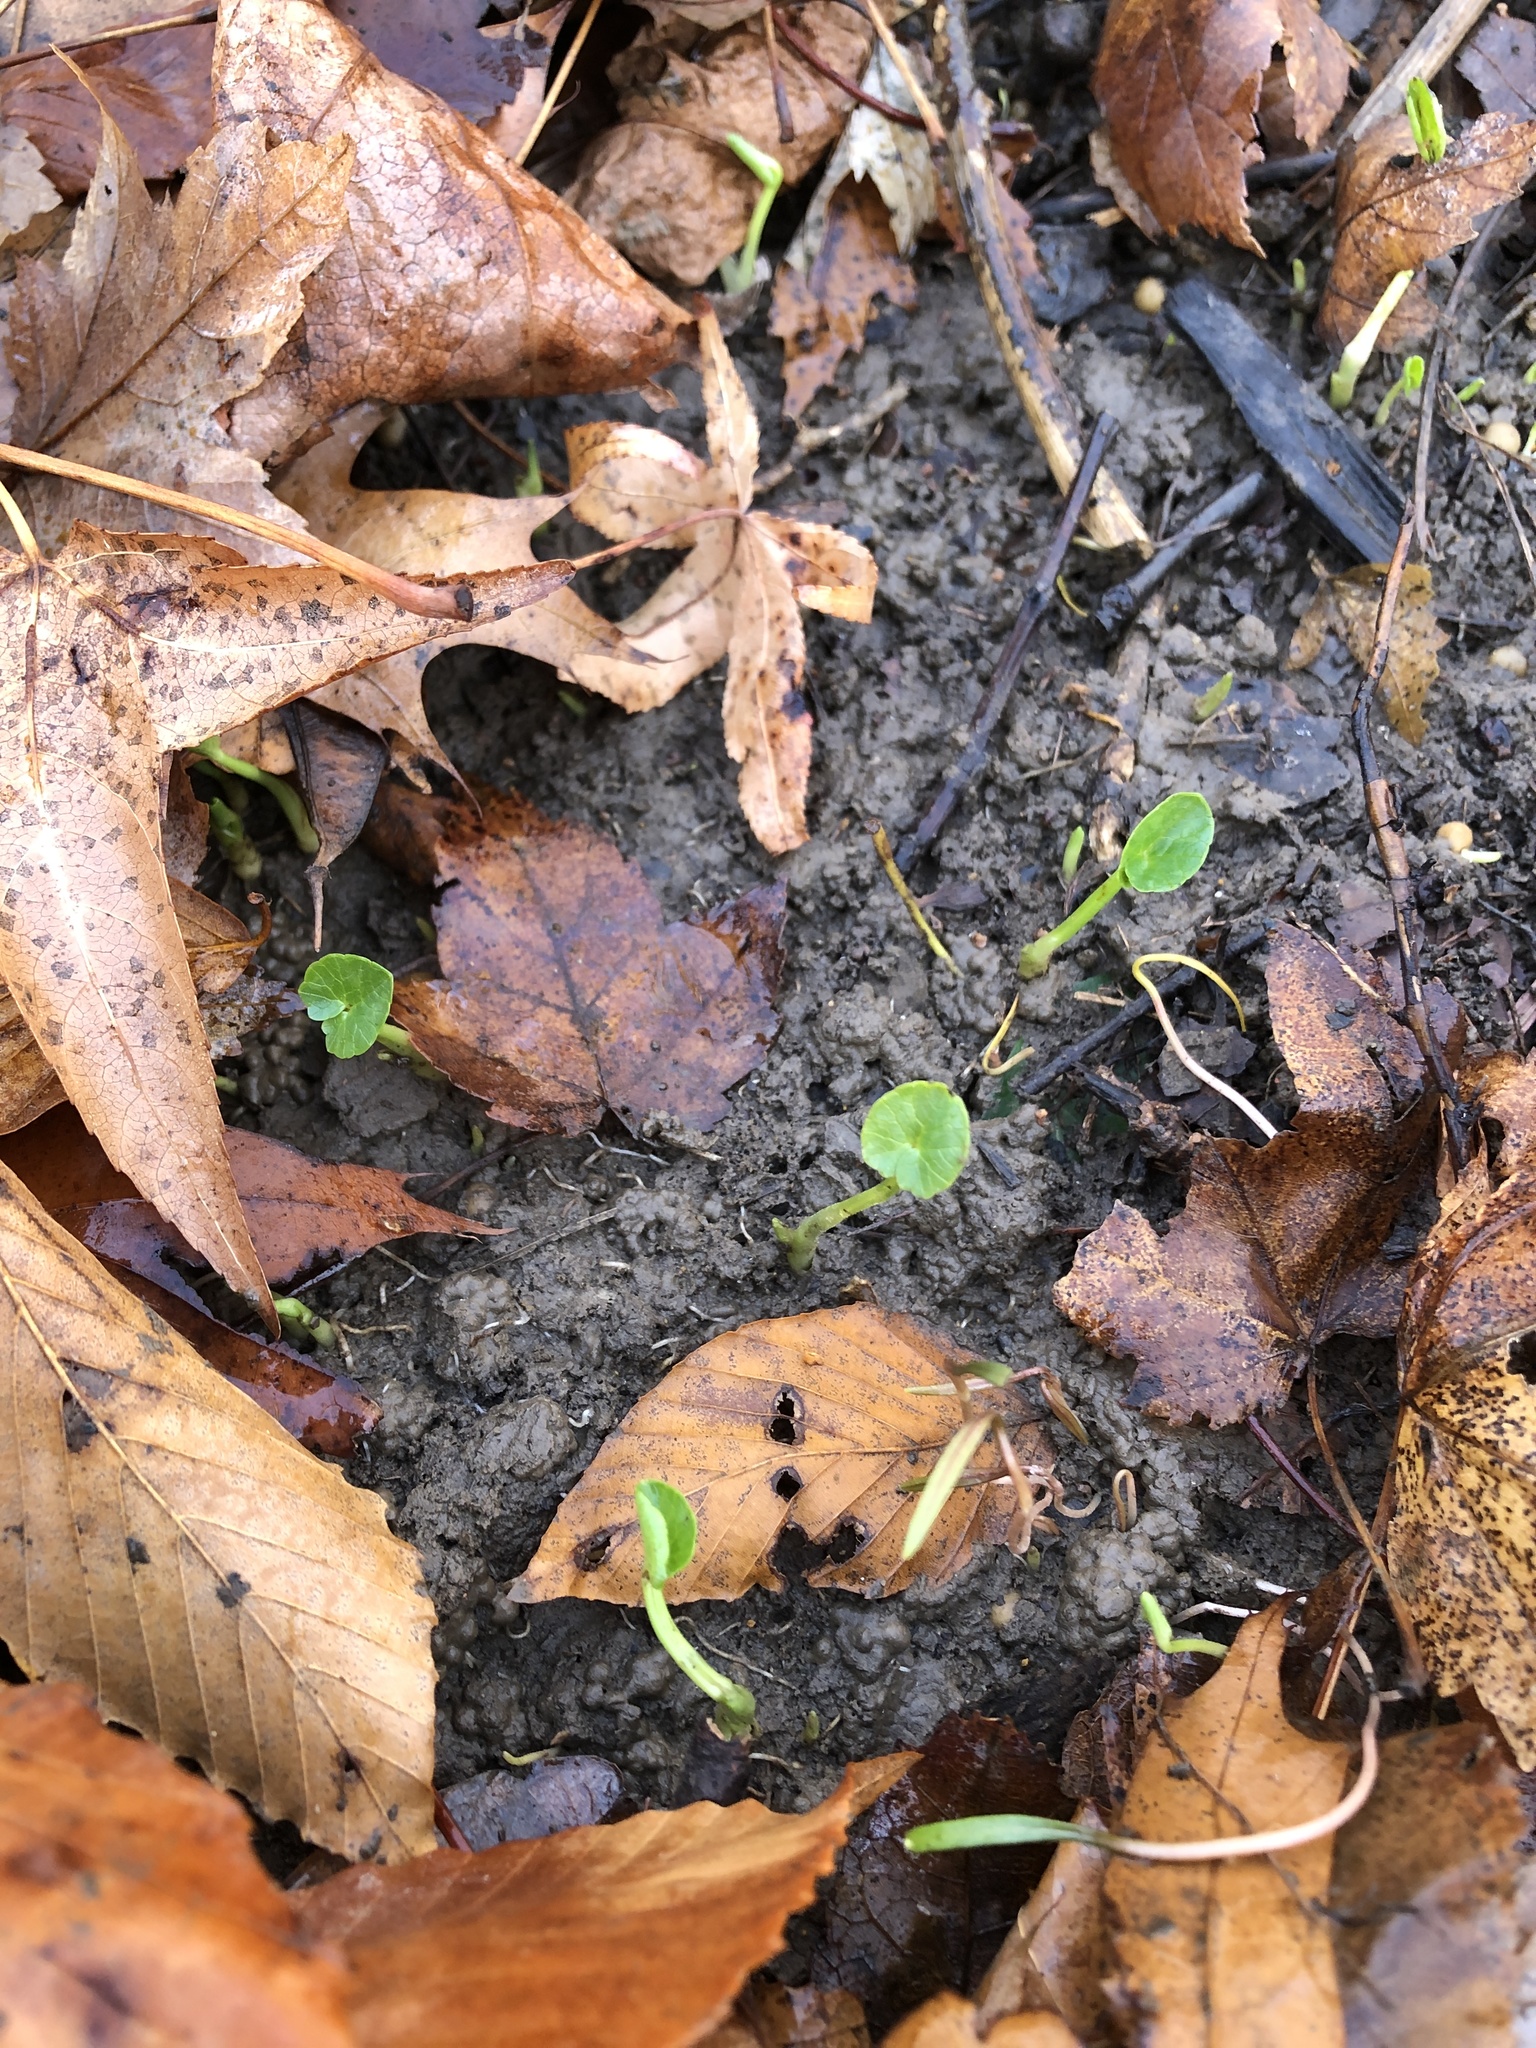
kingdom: Plantae
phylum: Tracheophyta
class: Magnoliopsida
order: Ranunculales
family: Ranunculaceae
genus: Ficaria
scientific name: Ficaria verna
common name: Lesser celandine
